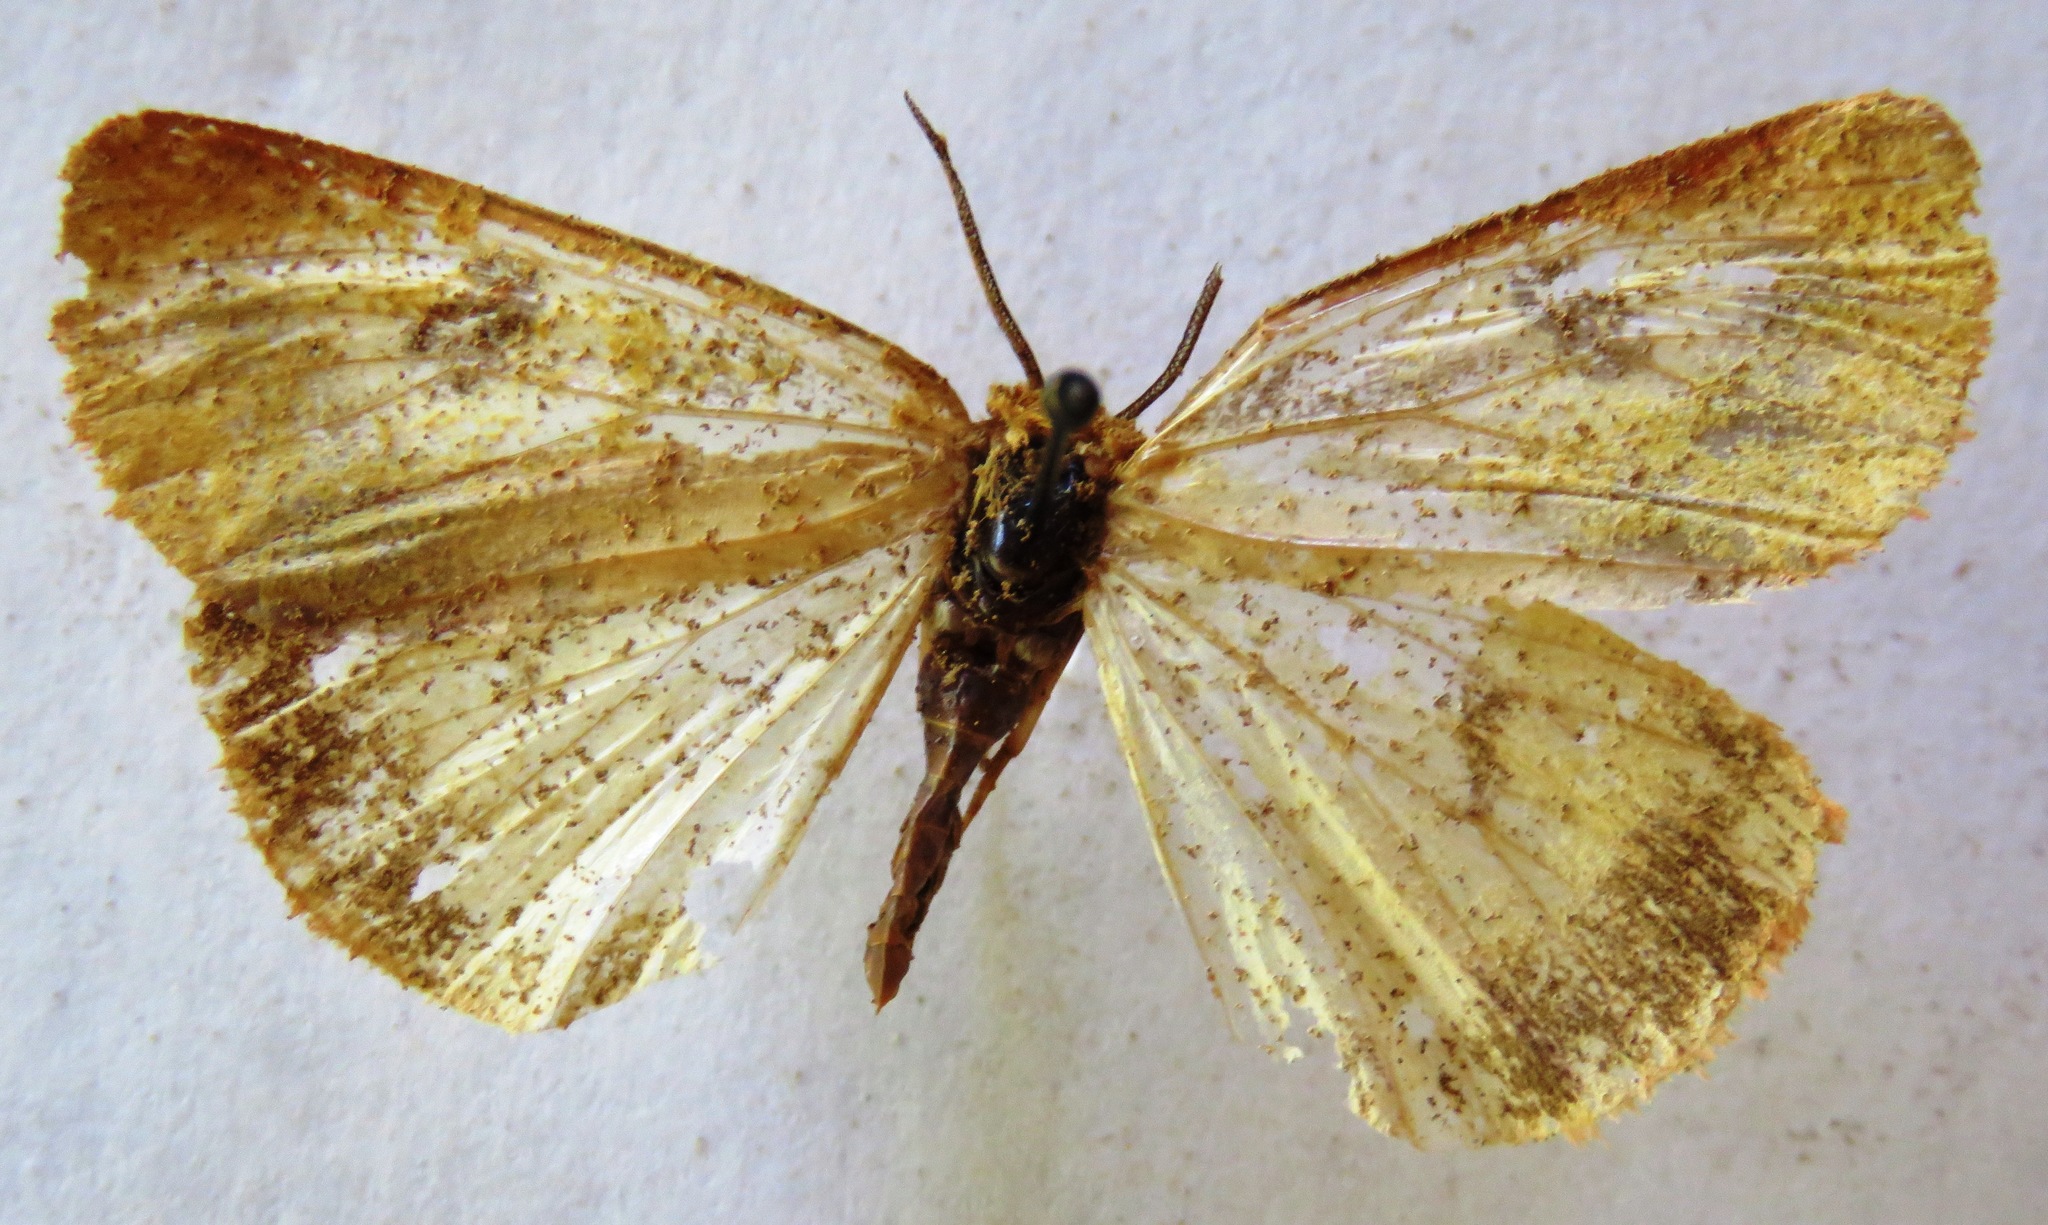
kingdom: Animalia
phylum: Arthropoda
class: Insecta
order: Lepidoptera
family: Erebidae
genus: Diacrisia
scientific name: Diacrisia sannio
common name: Clouded buff
